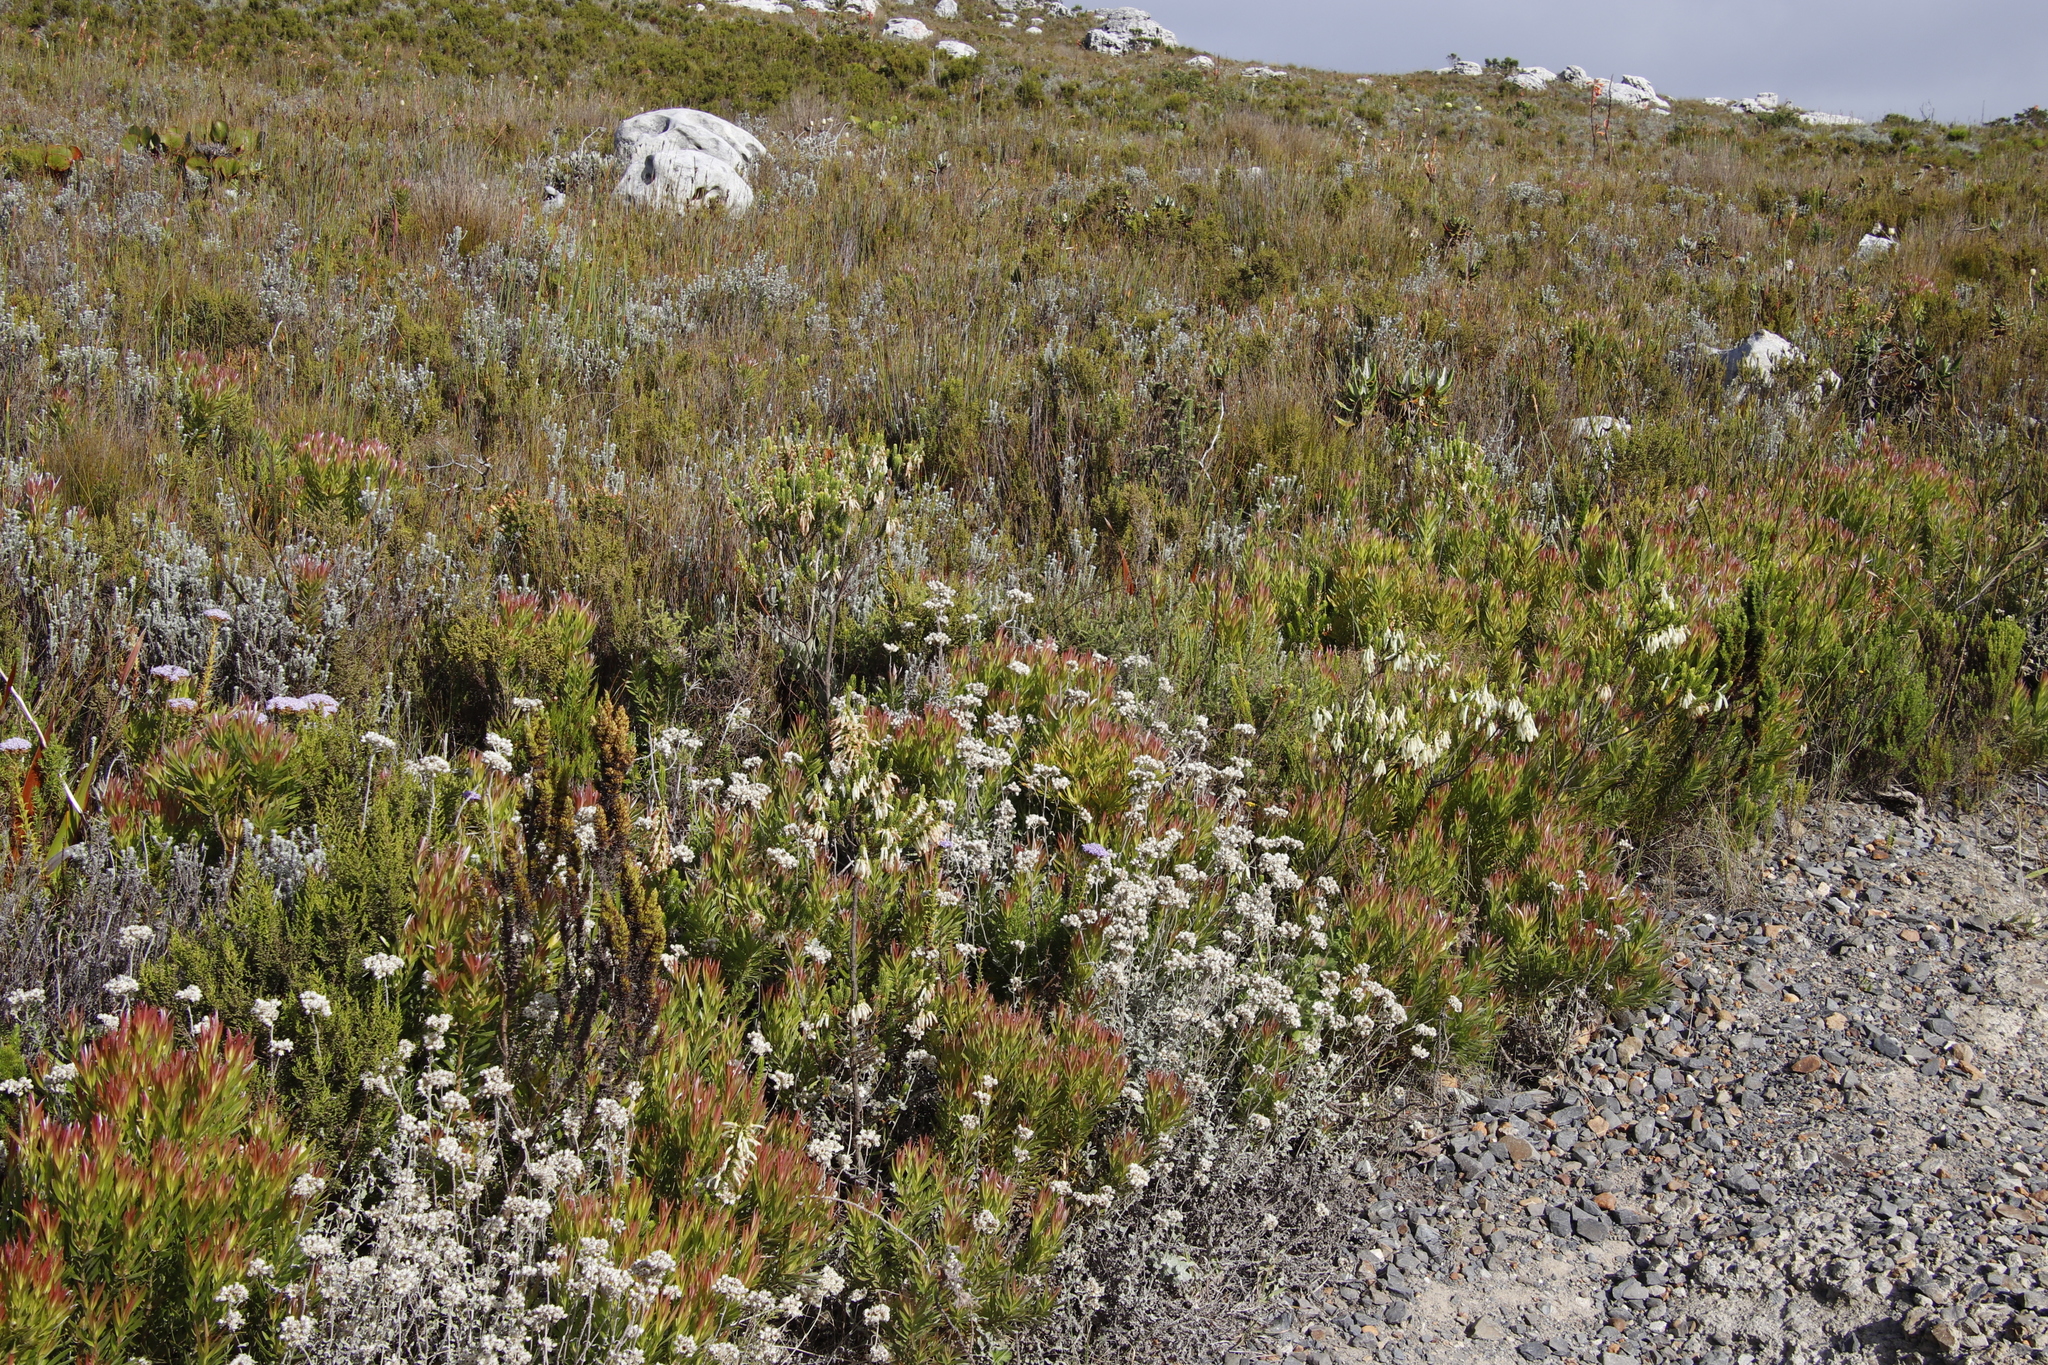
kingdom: Plantae
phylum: Tracheophyta
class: Magnoliopsida
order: Ericales
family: Ericaceae
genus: Erica
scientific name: Erica mammosa
